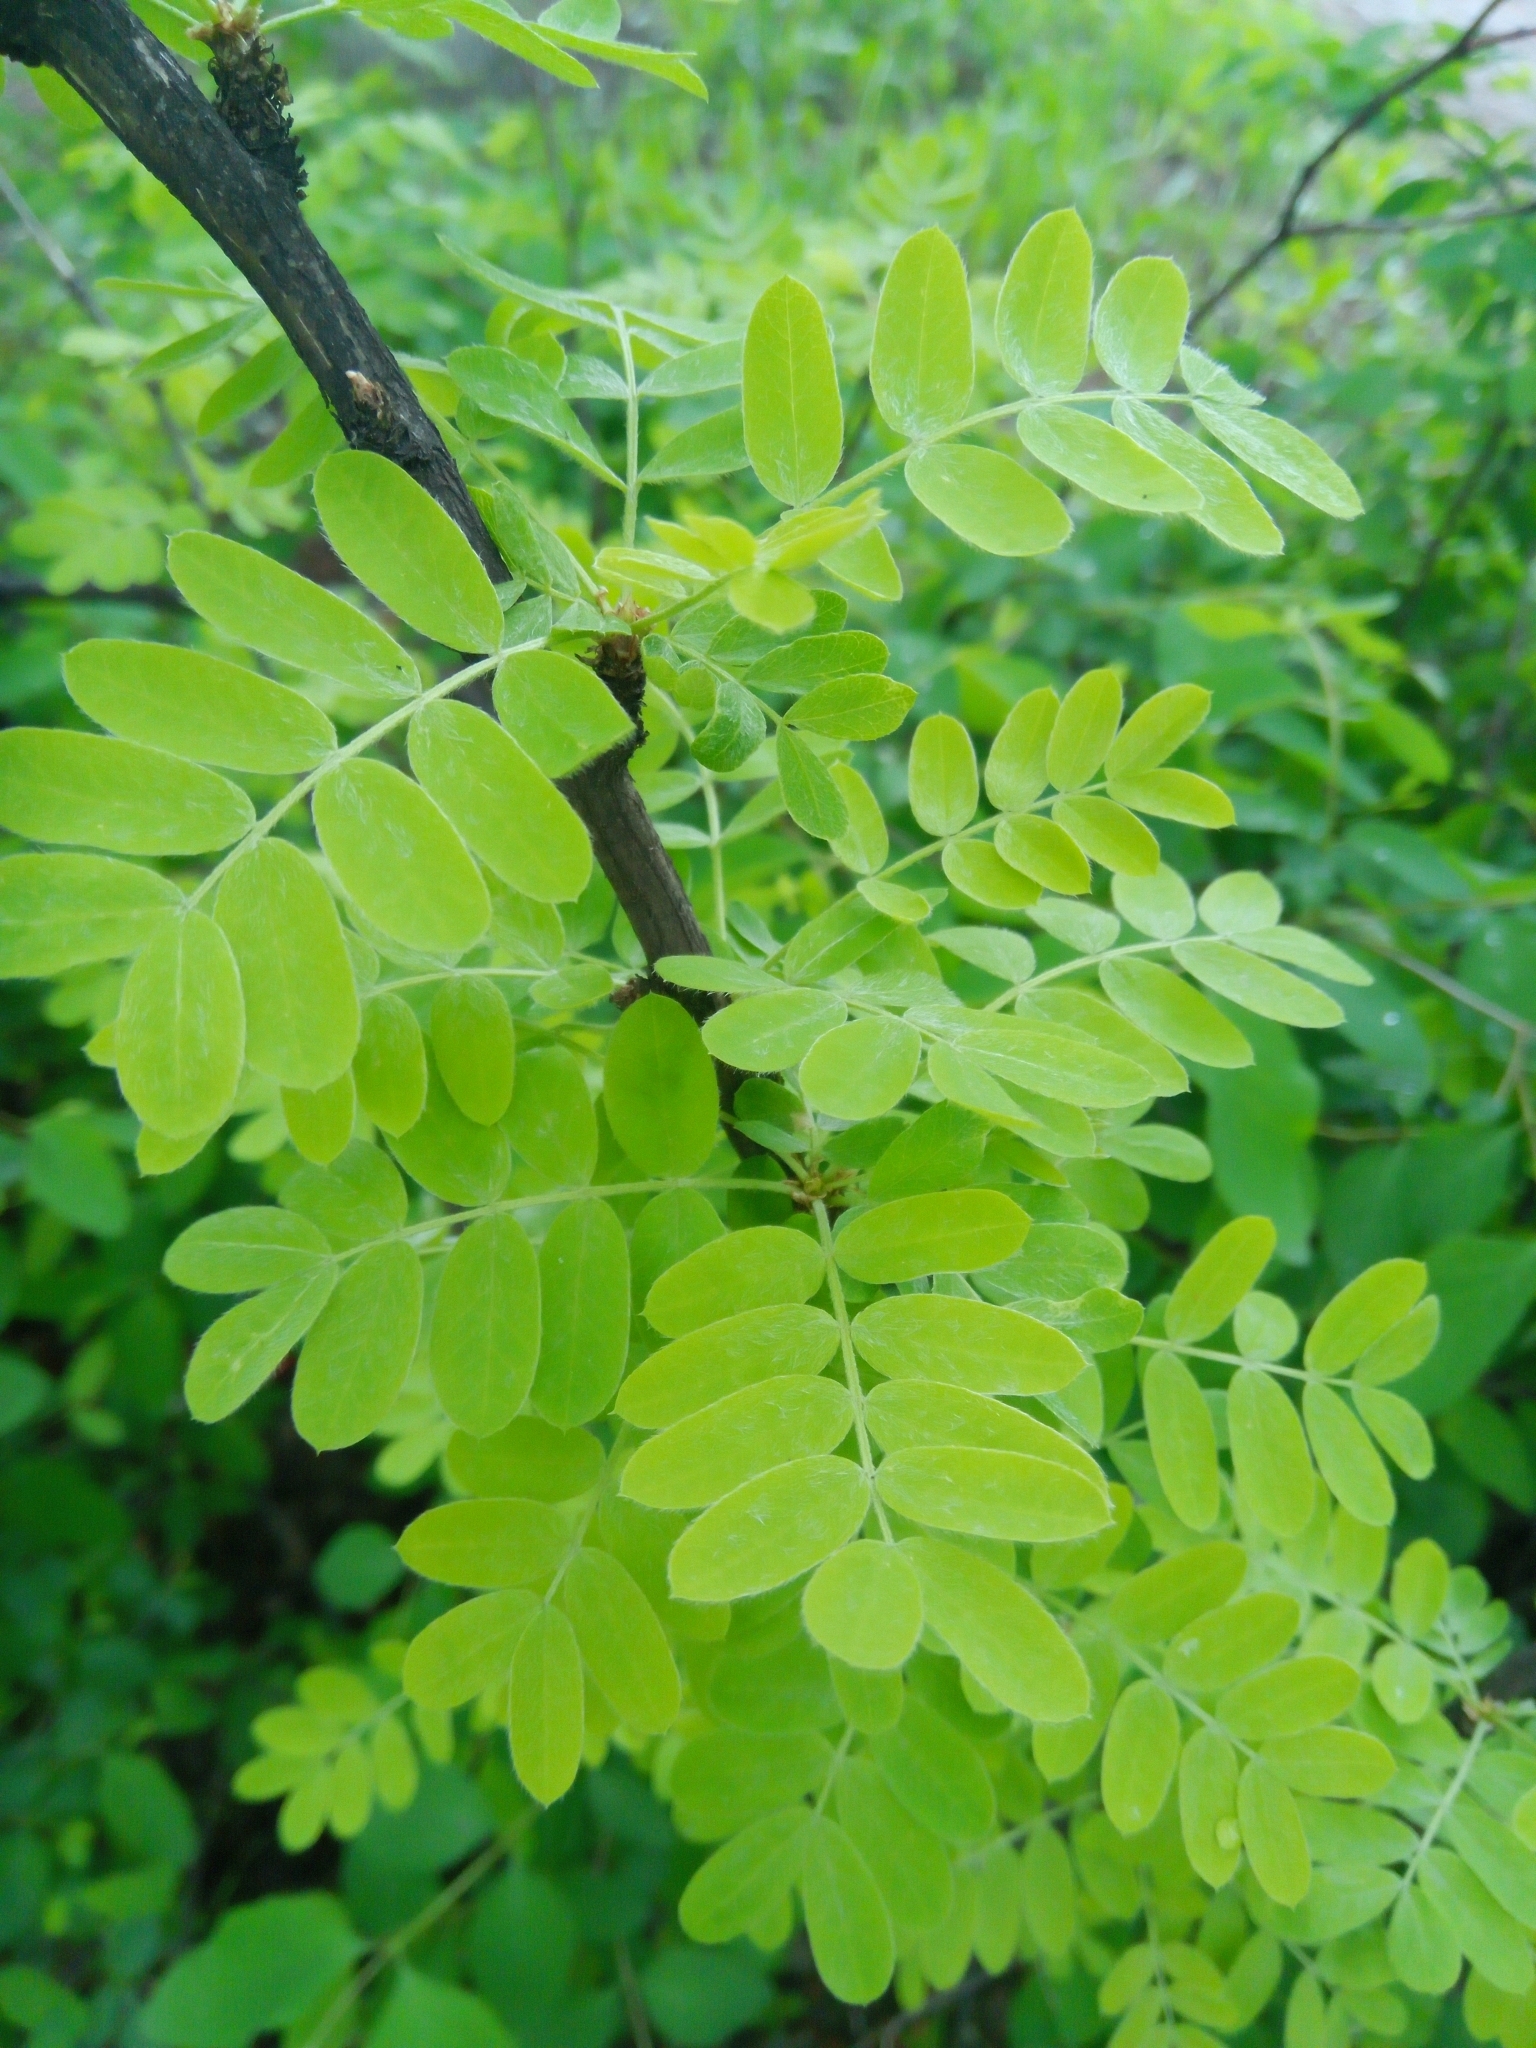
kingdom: Plantae
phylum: Tracheophyta
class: Magnoliopsida
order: Fabales
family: Fabaceae
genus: Caragana
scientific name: Caragana arborescens
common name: Siberian peashrub
